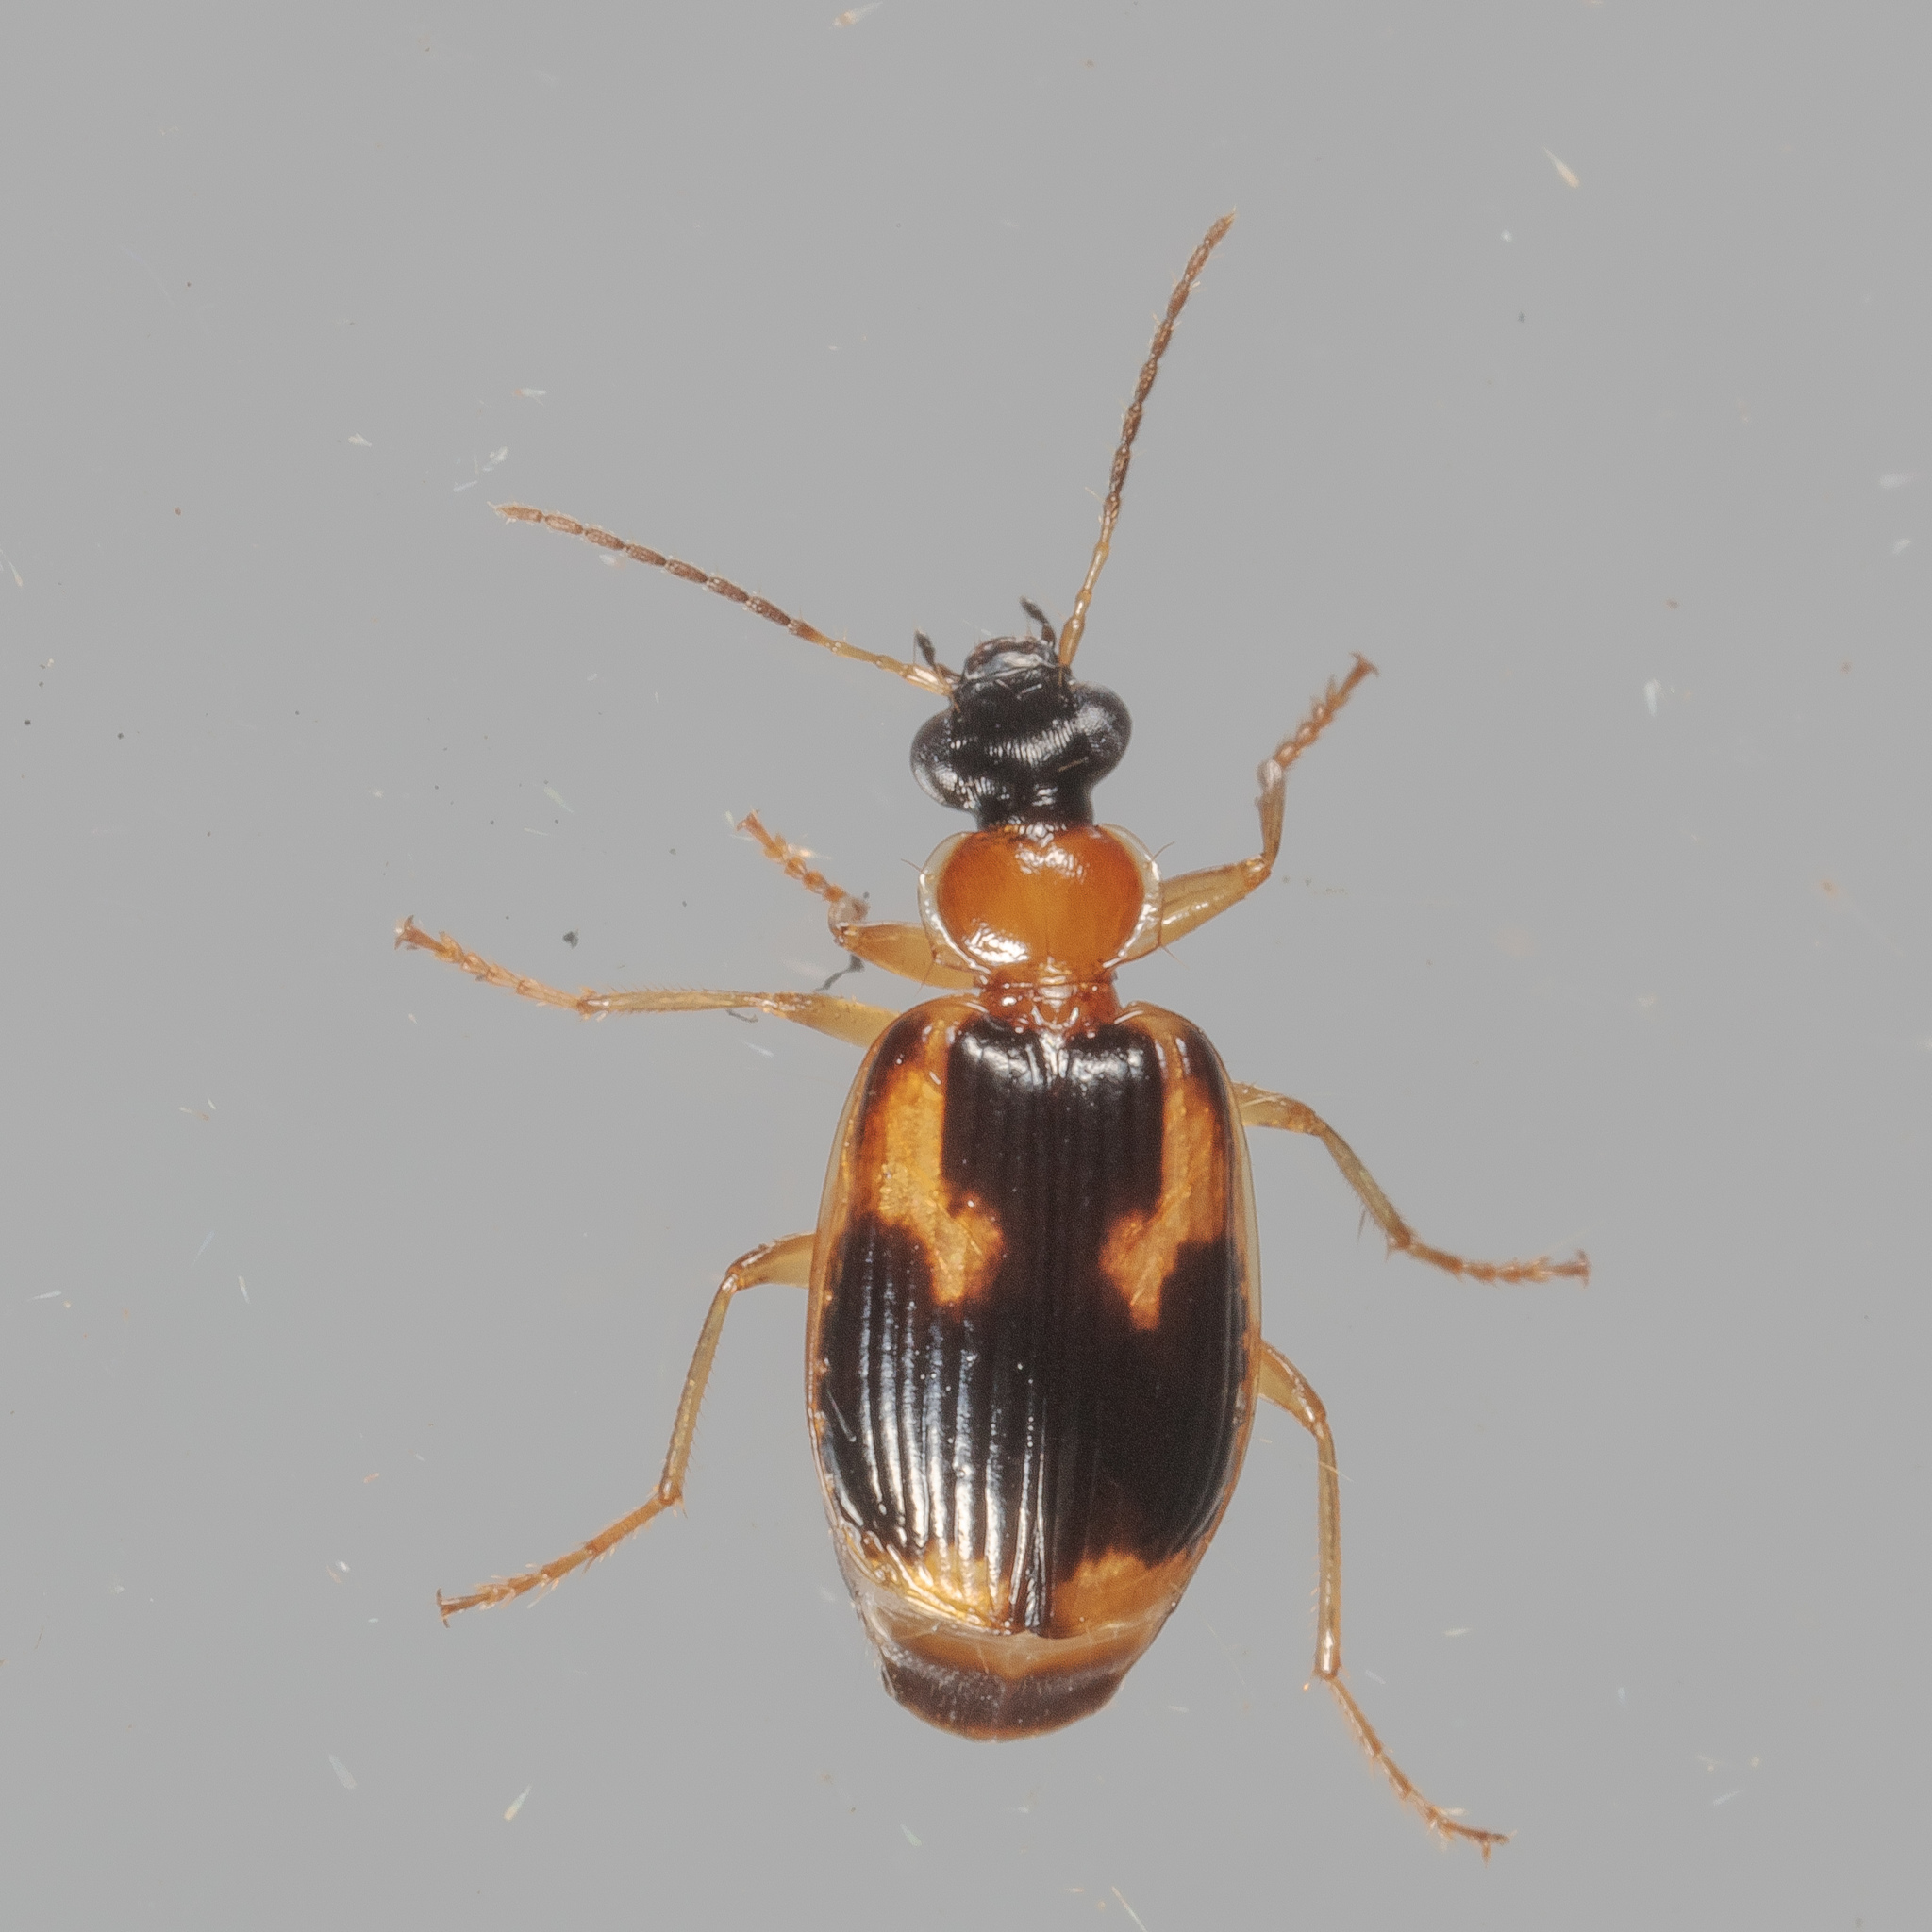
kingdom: Animalia
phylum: Arthropoda
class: Insecta
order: Coleoptera
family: Carabidae
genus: Lebia
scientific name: Lebia analis
